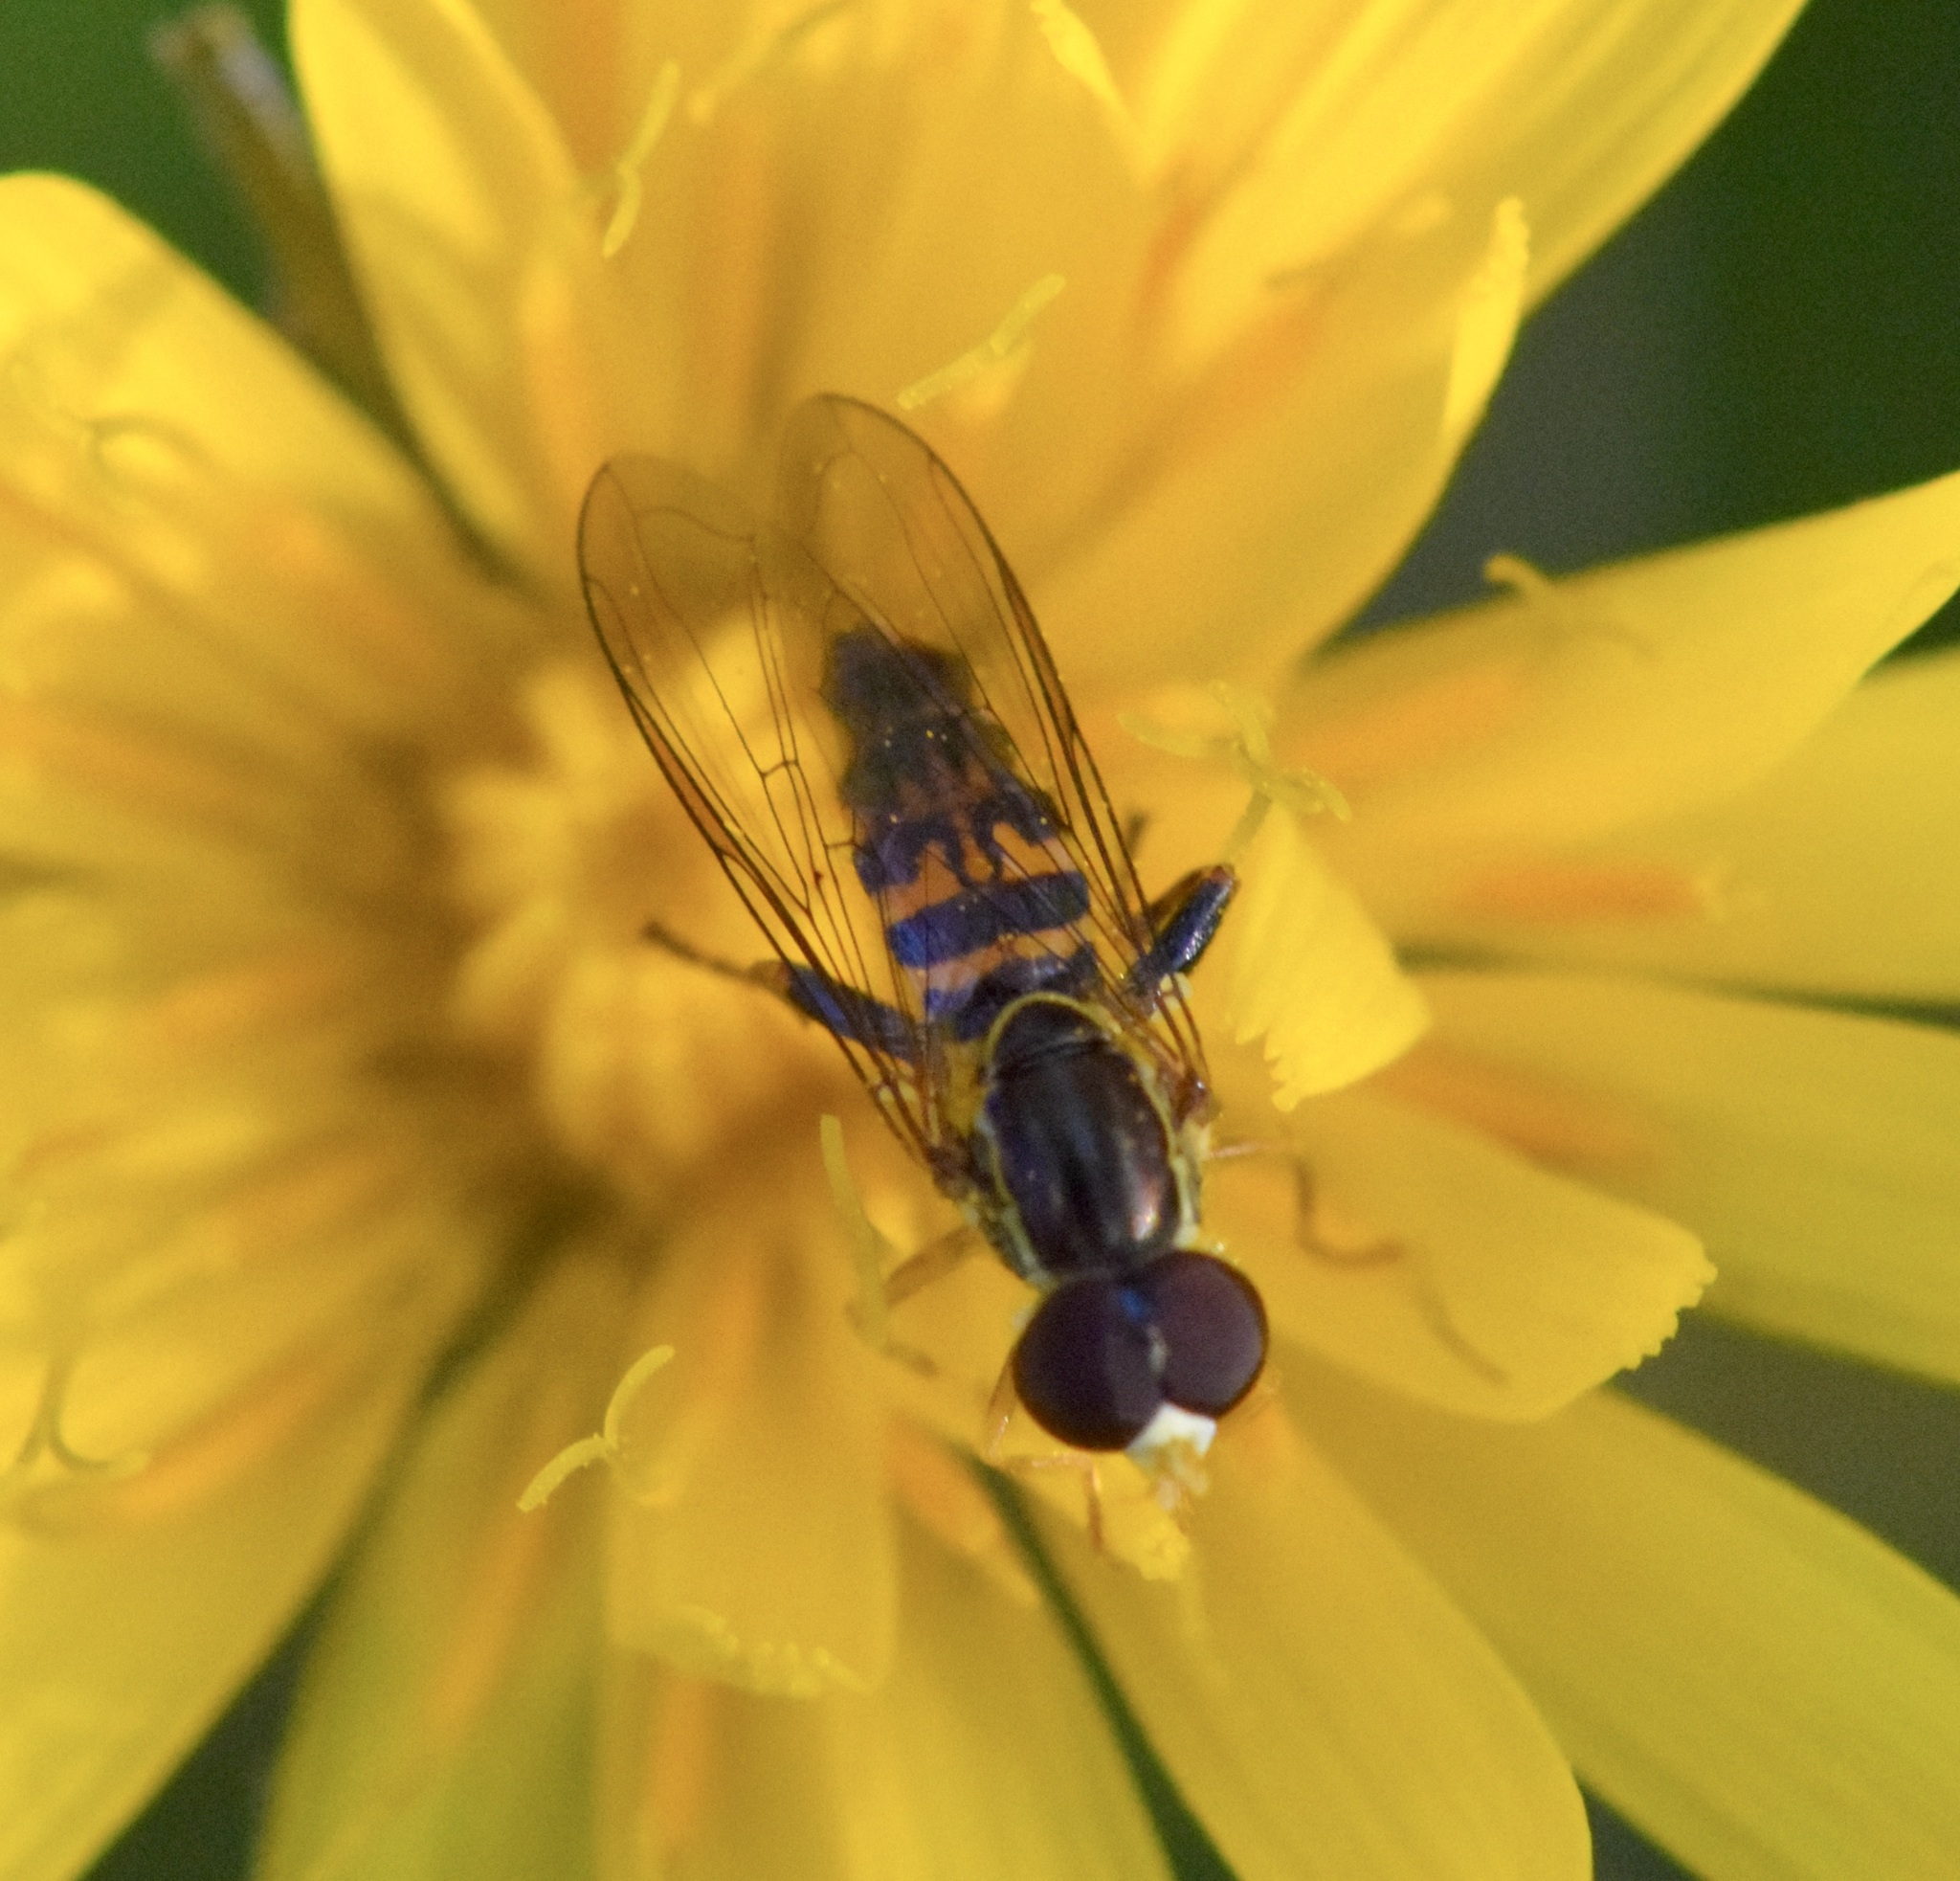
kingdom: Animalia
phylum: Arthropoda
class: Insecta
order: Diptera
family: Syrphidae
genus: Toxomerus
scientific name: Toxomerus geminatus
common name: Eastern calligrapher
